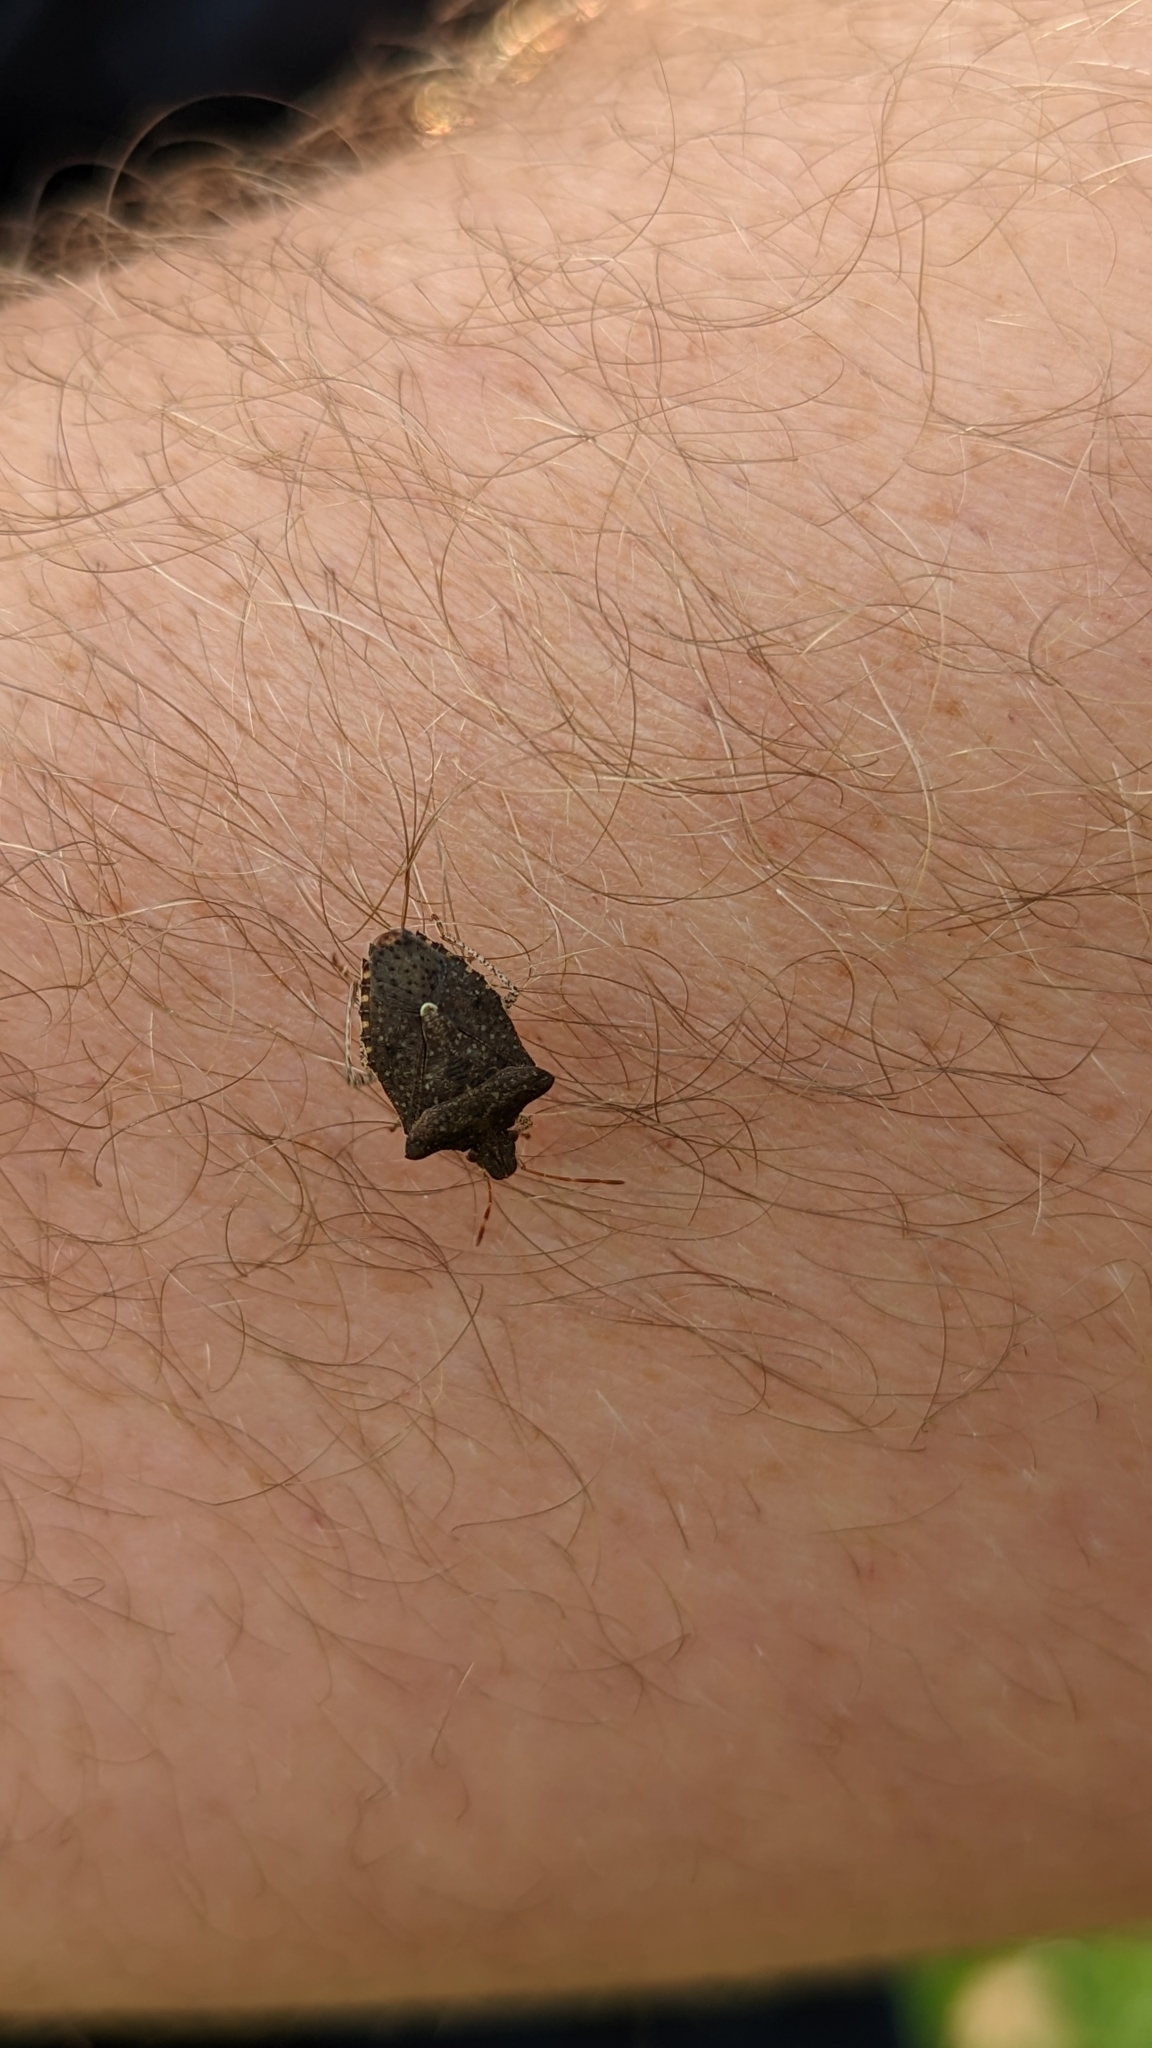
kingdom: Animalia
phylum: Arthropoda
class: Insecta
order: Hemiptera
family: Pentatomidae
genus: Euschistus
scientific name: Euschistus tristigmus
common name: Dusky stink bug
